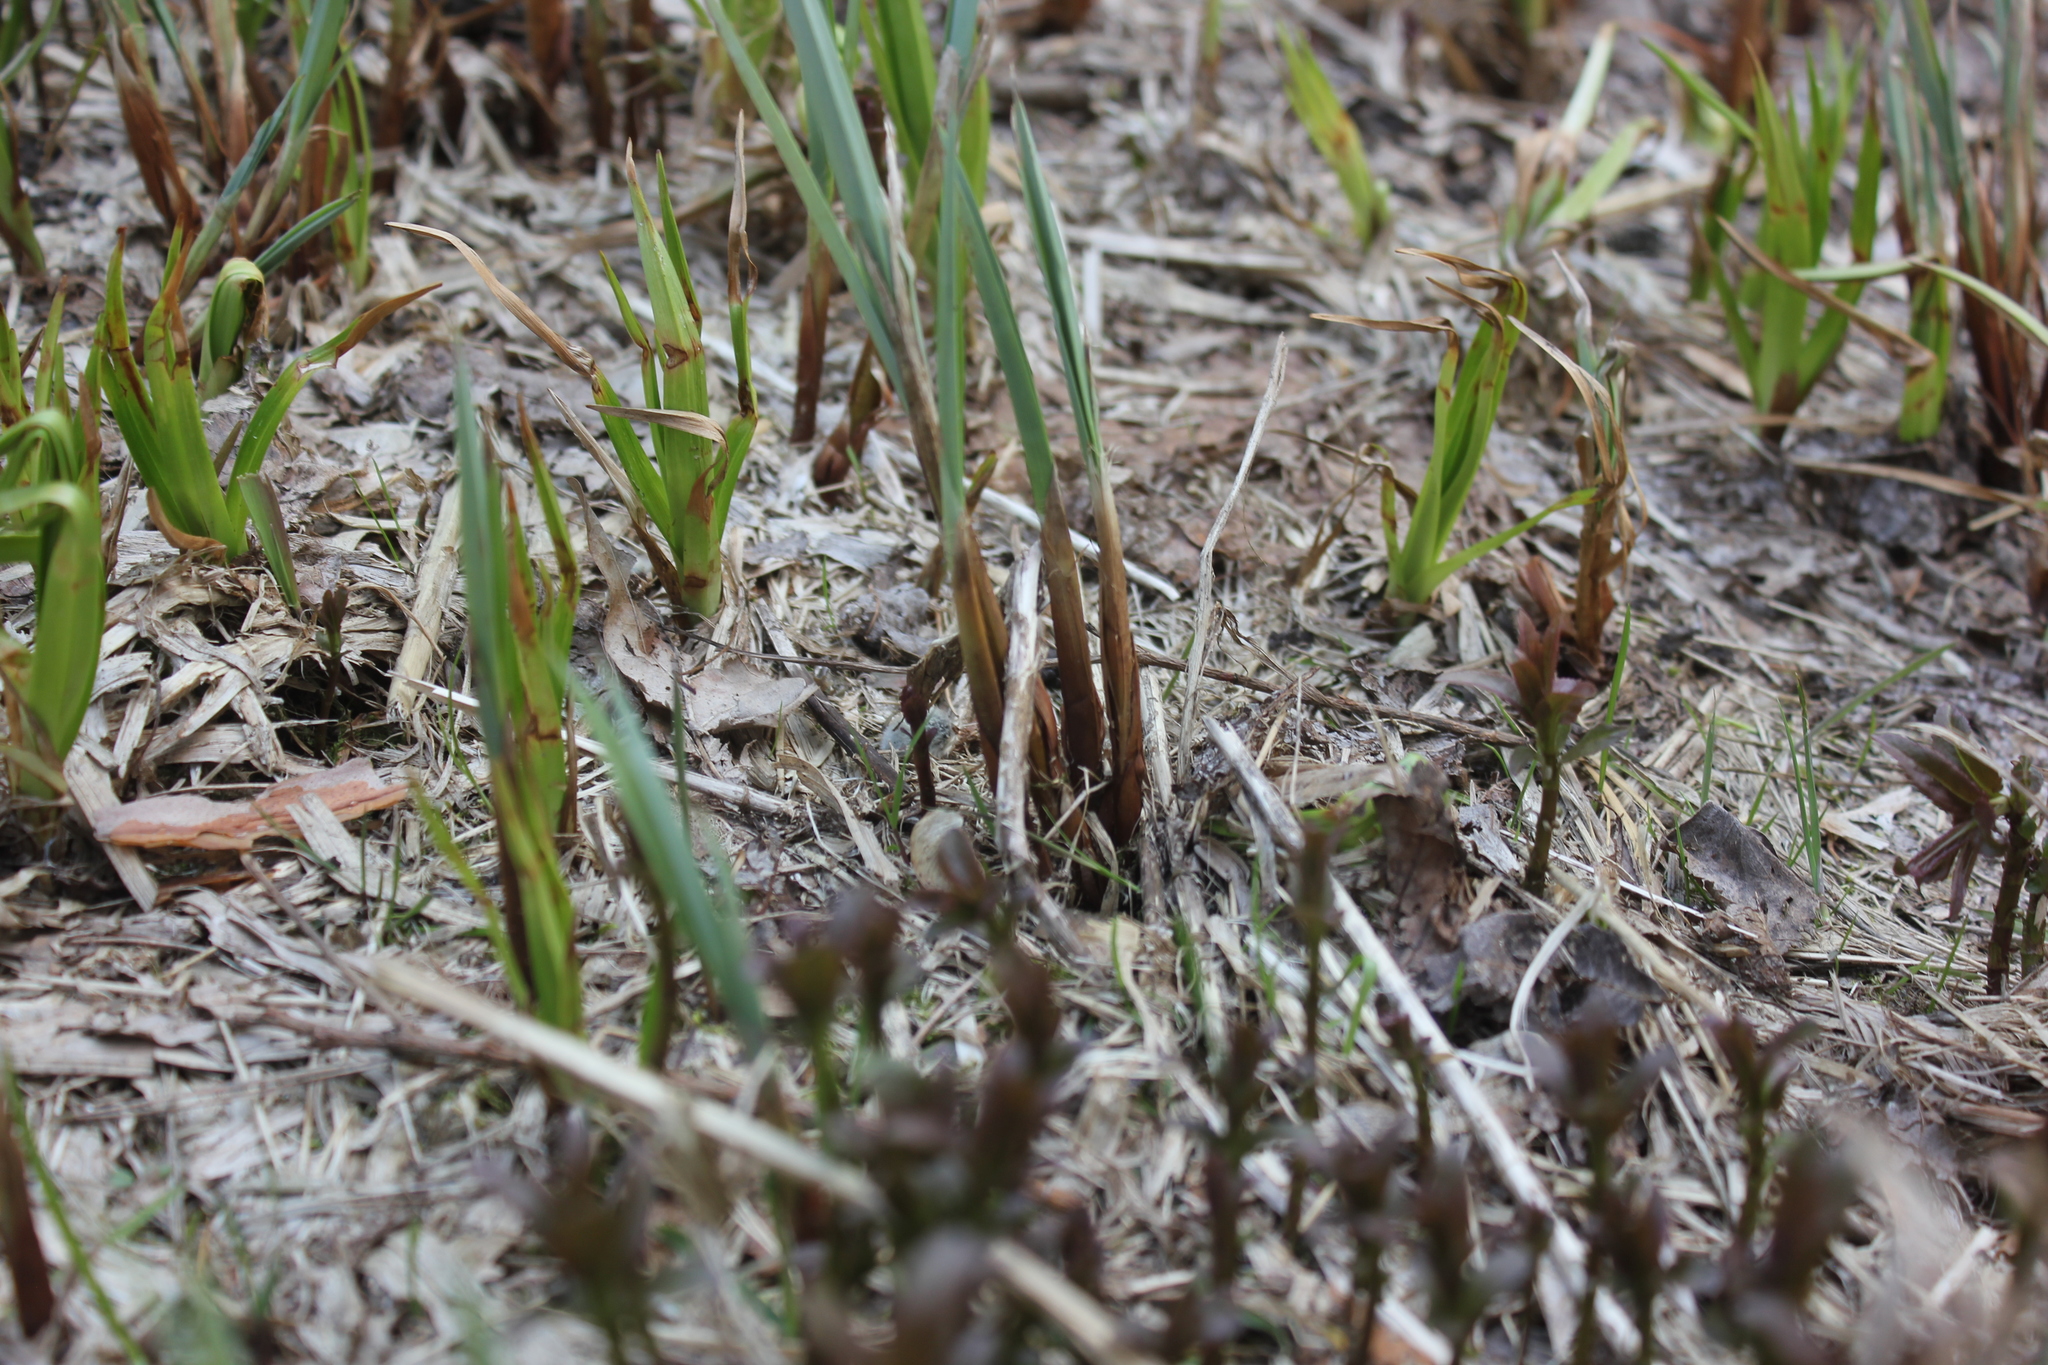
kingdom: Plantae
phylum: Tracheophyta
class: Liliopsida
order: Poales
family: Cyperaceae
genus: Scirpus
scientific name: Scirpus sylvaticus
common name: Wood club-rush
